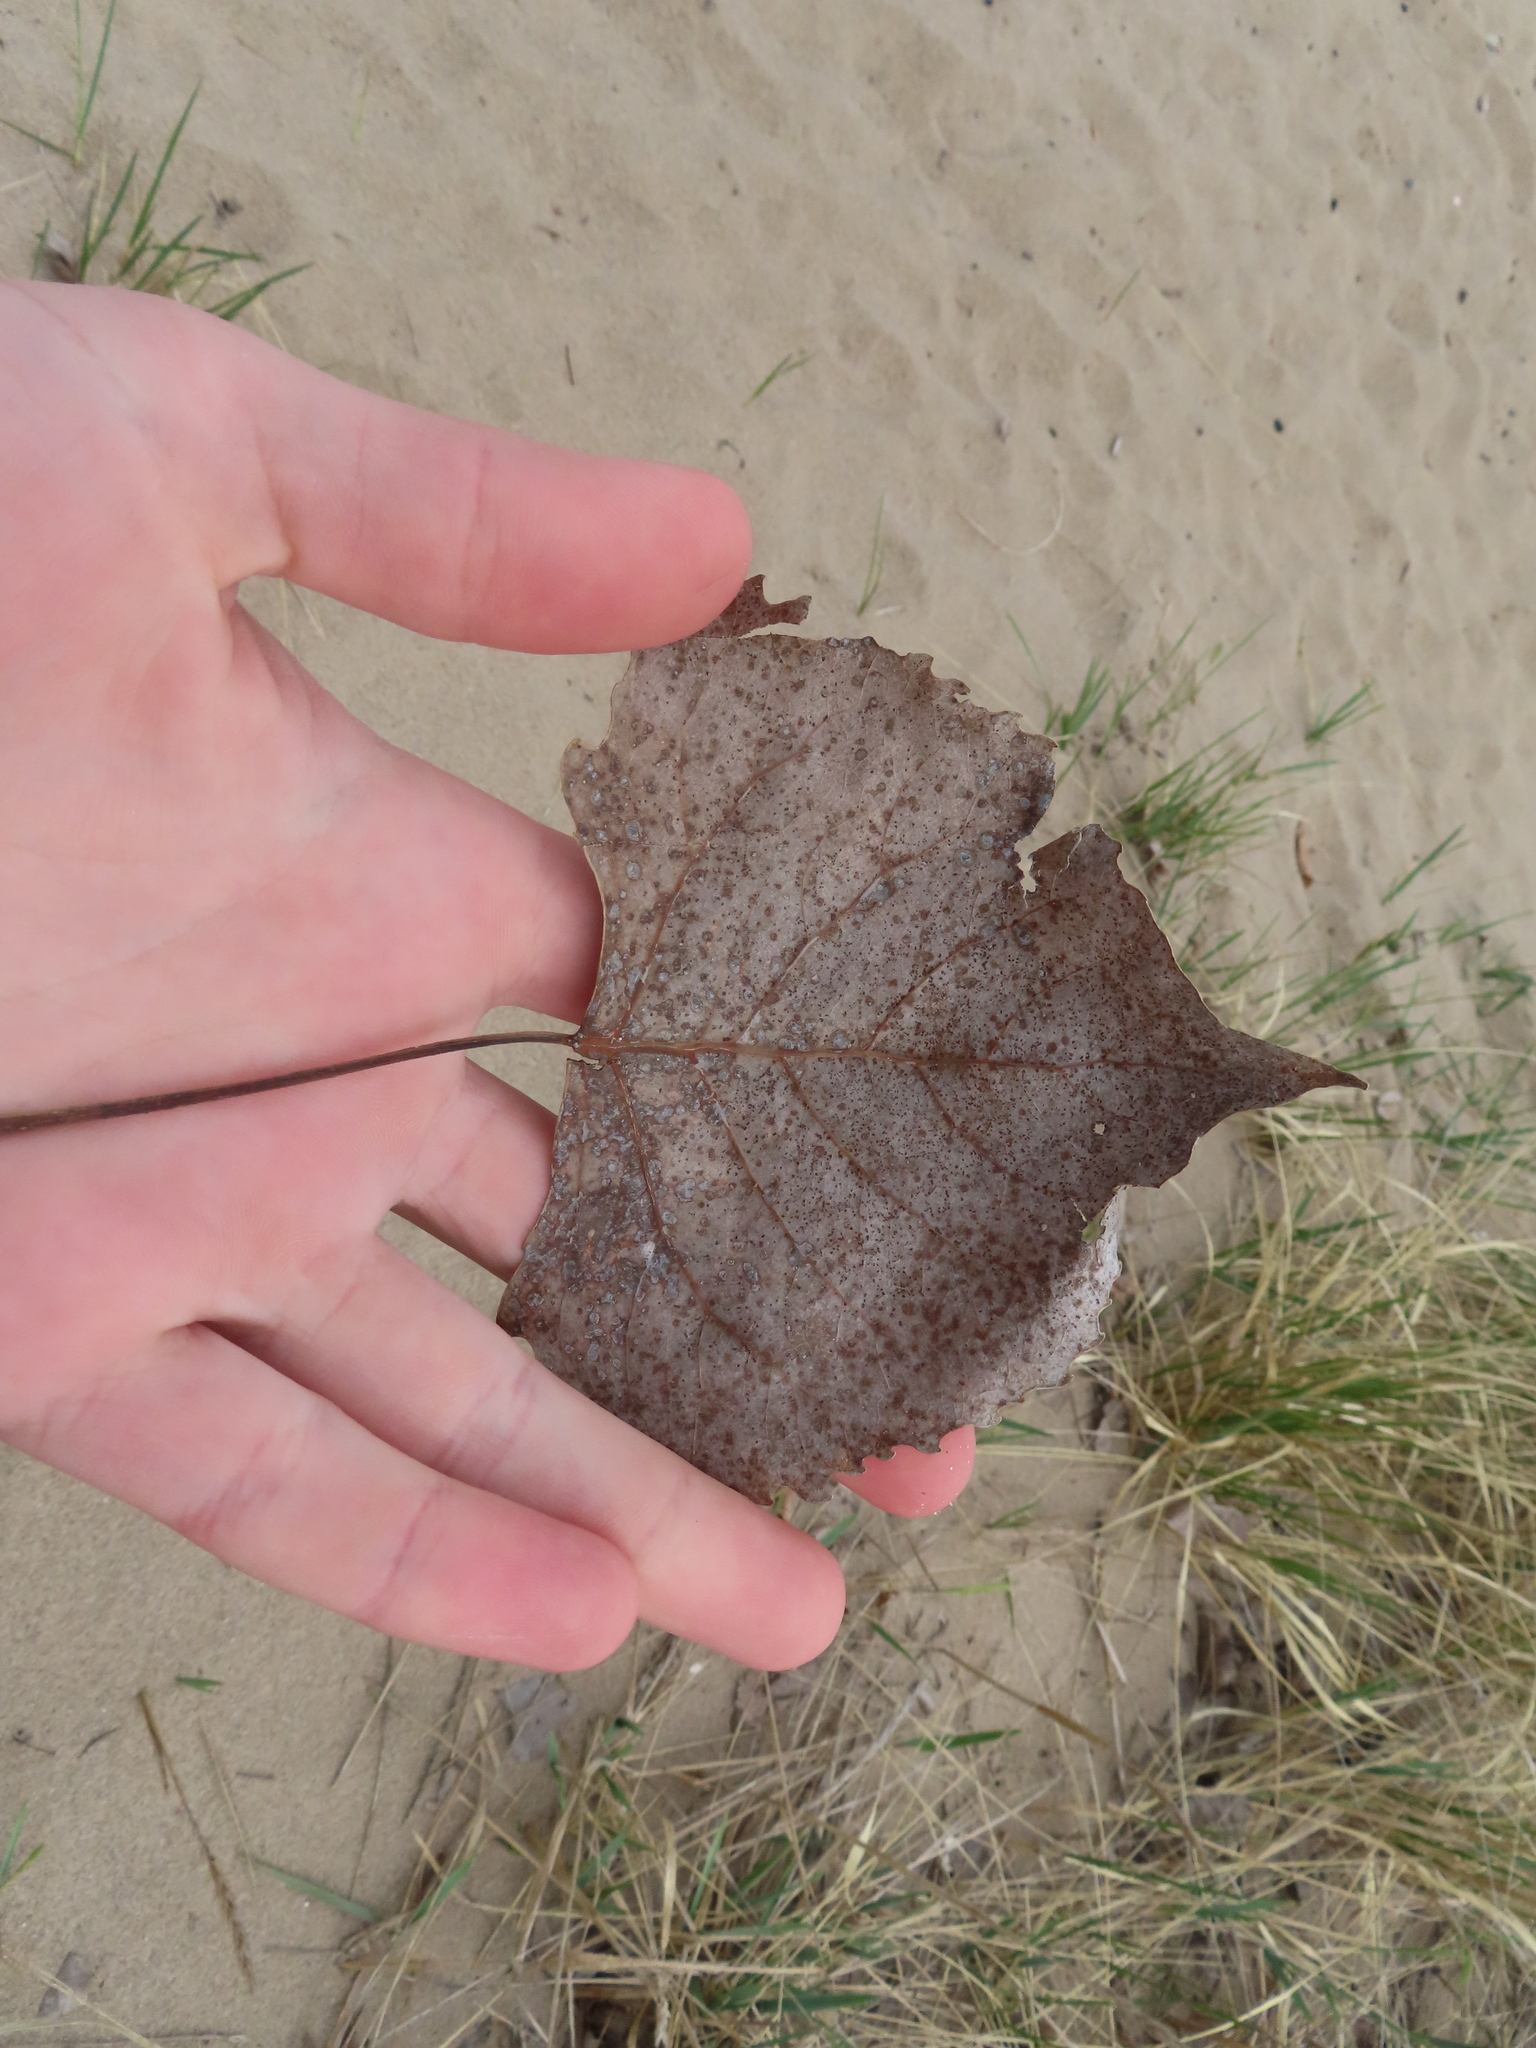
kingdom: Plantae
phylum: Tracheophyta
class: Magnoliopsida
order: Malpighiales
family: Salicaceae
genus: Populus
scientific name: Populus deltoides
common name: Eastern cottonwood
